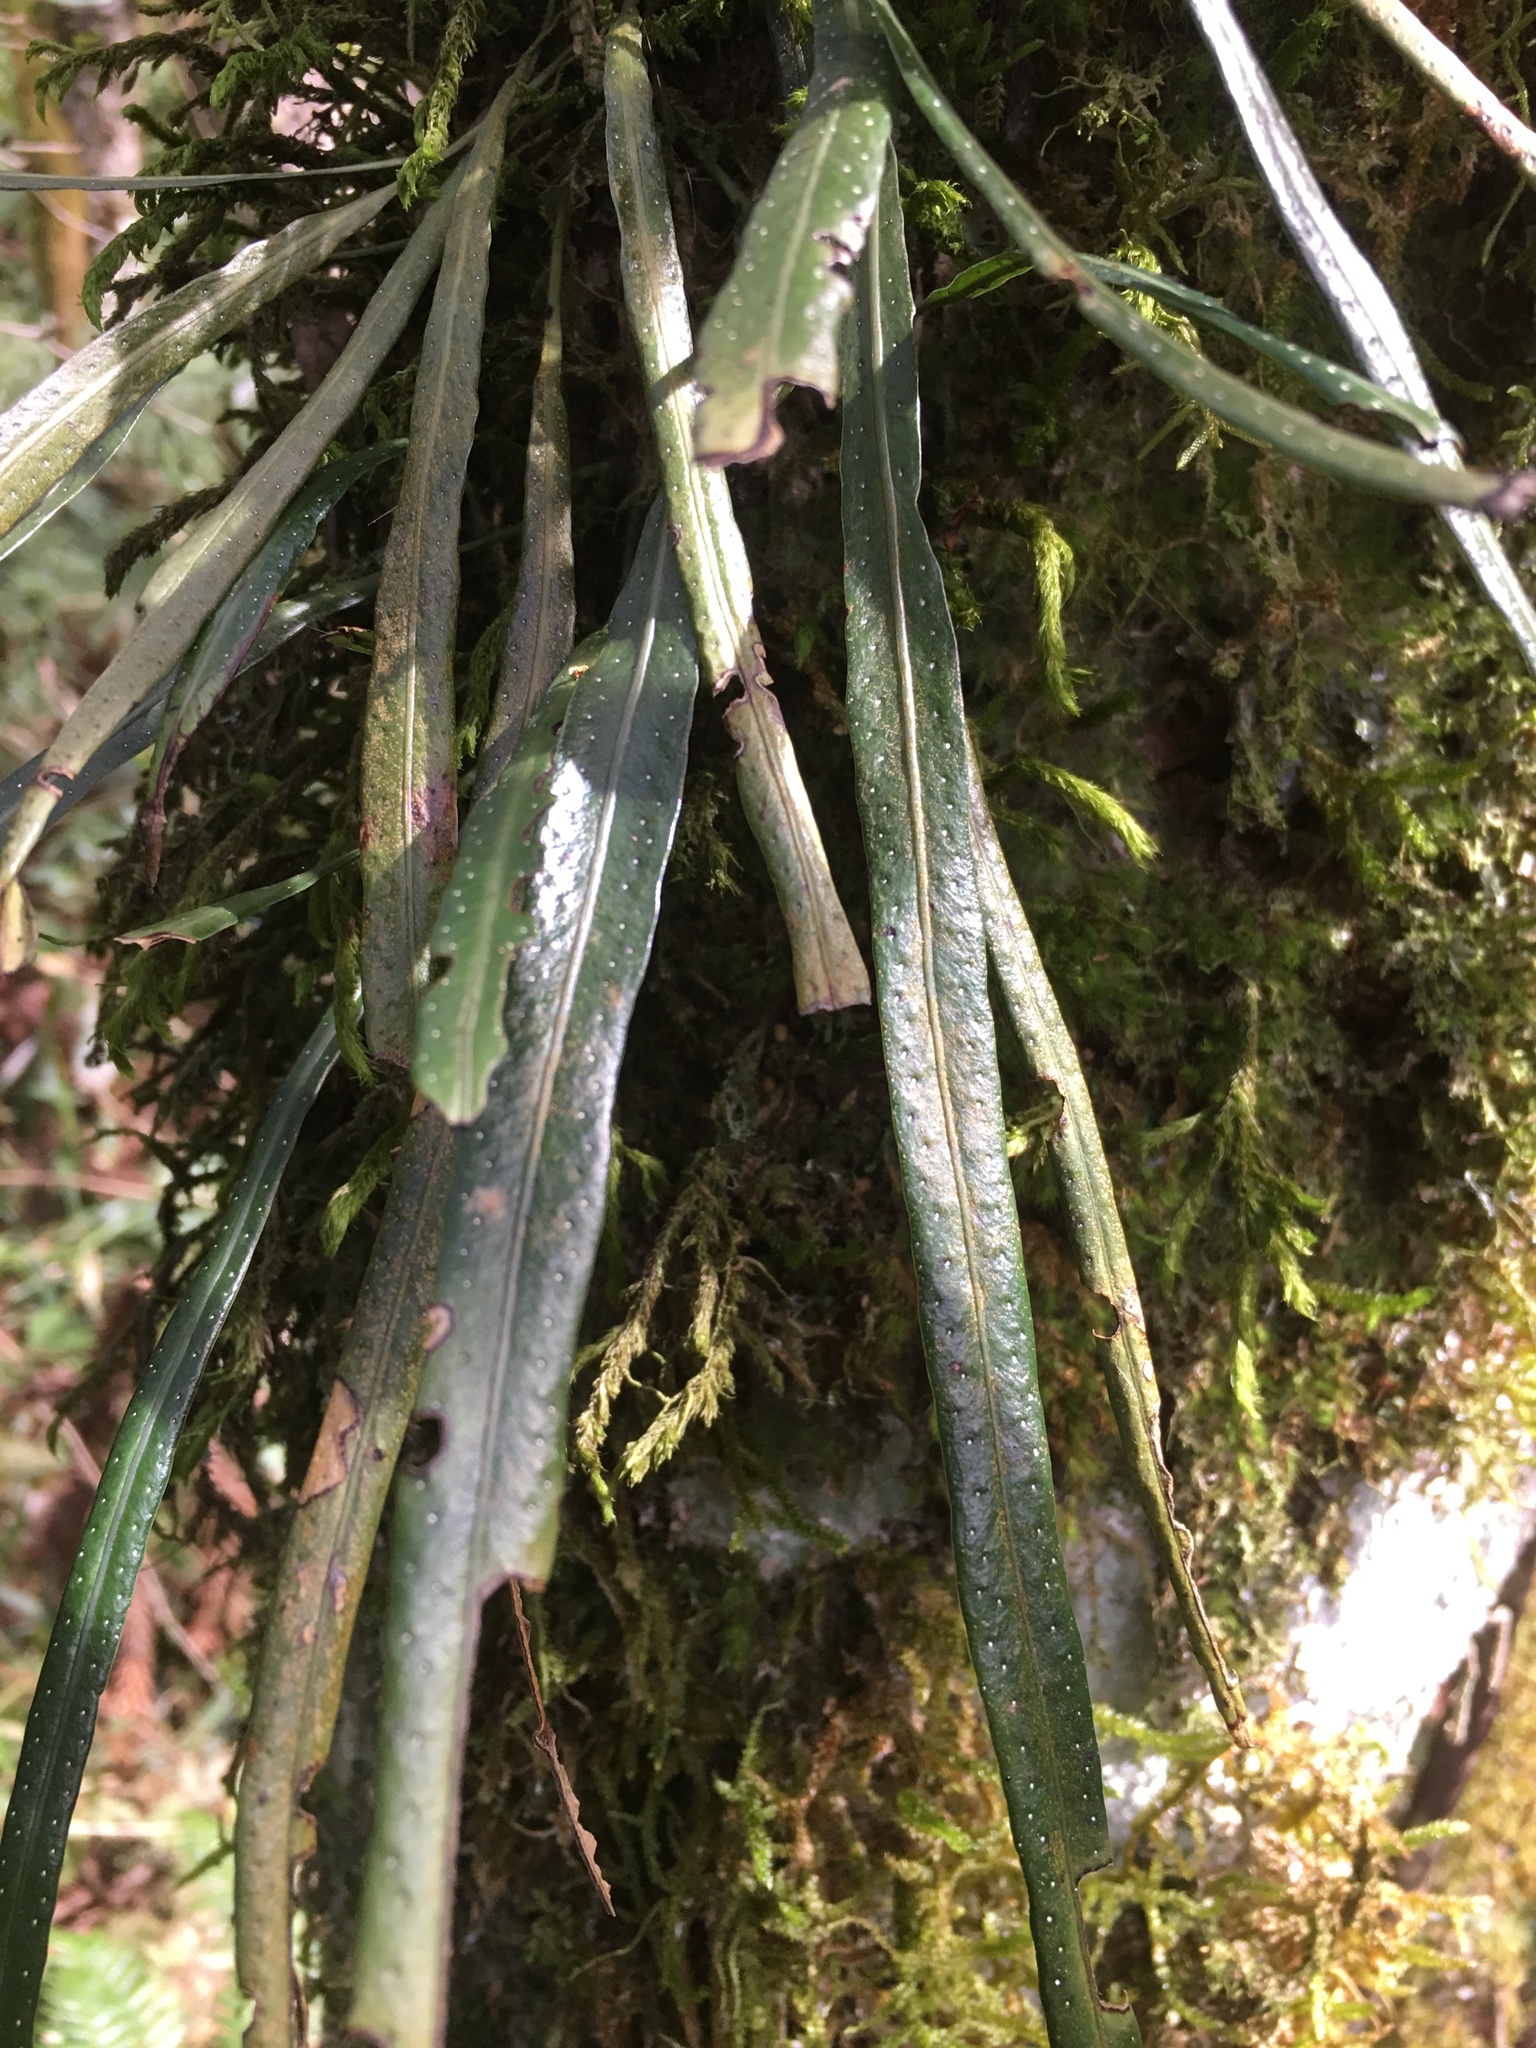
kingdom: Plantae
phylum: Tracheophyta
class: Polypodiopsida
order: Polypodiales
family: Polypodiaceae
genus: Campyloneurum
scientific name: Campyloneurum austrobrasilianum
